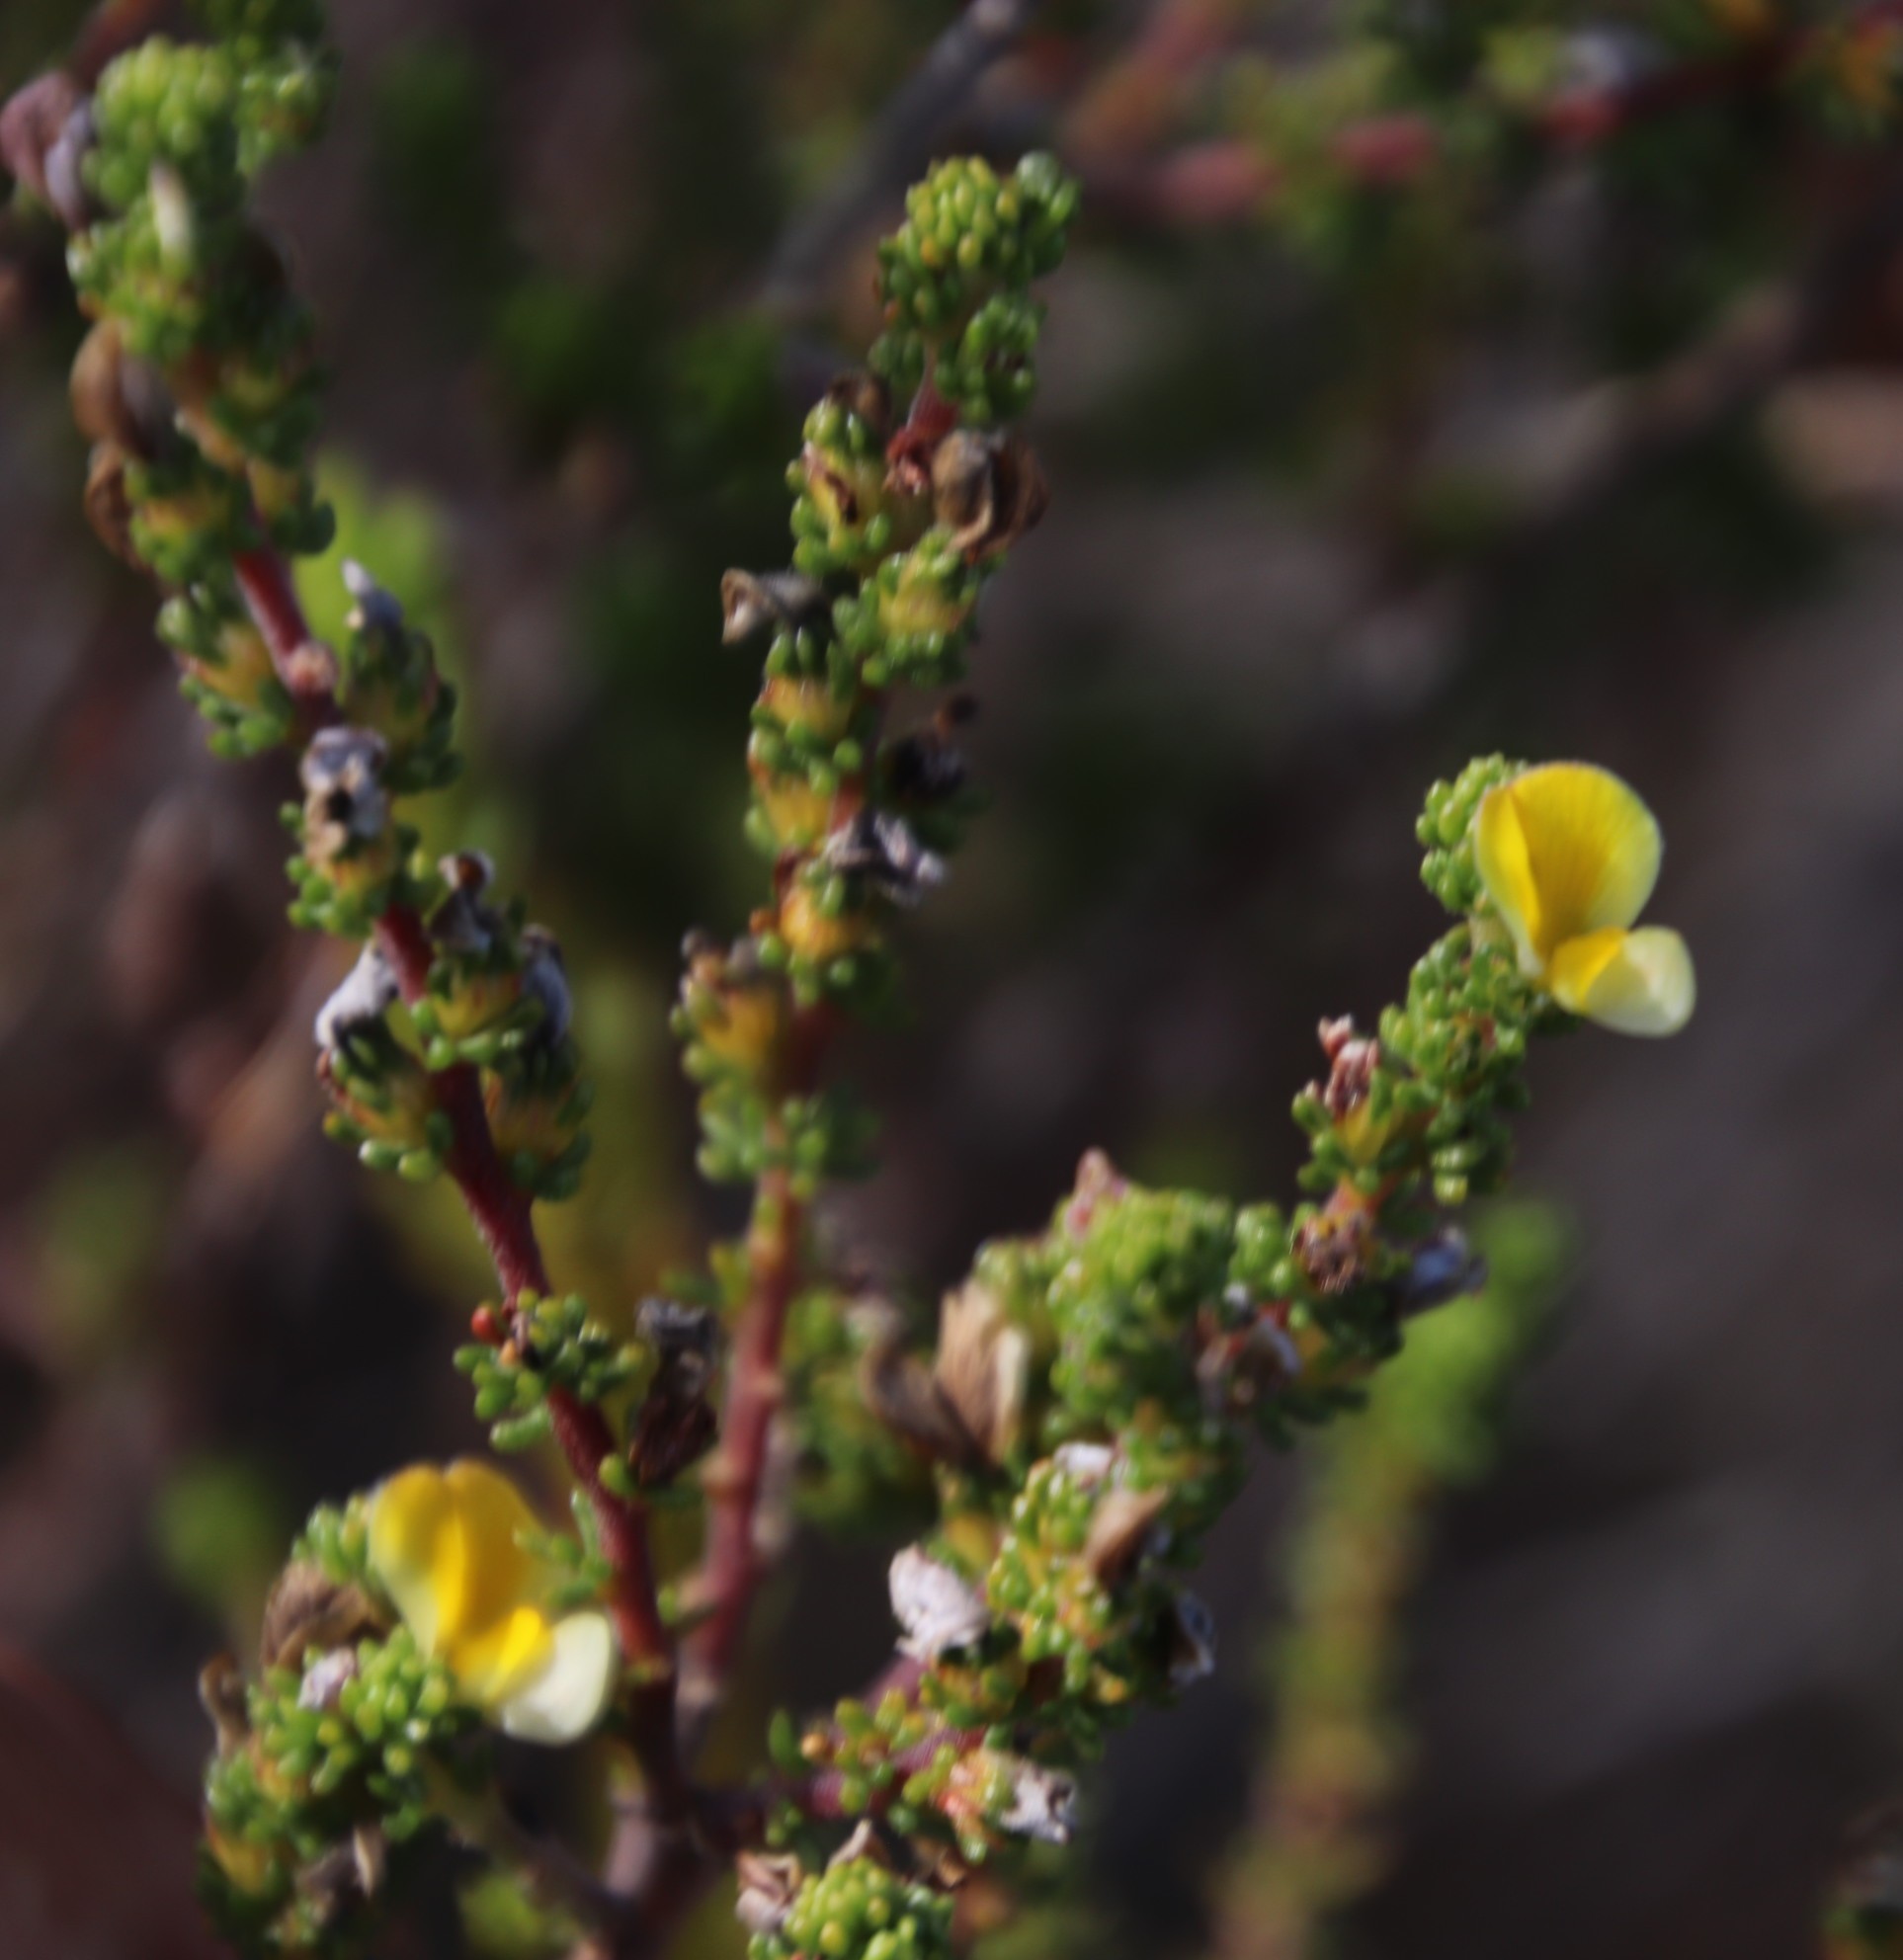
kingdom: Plantae
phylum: Tracheophyta
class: Magnoliopsida
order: Fabales
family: Fabaceae
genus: Aspalathus
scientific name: Aspalathus salteri
